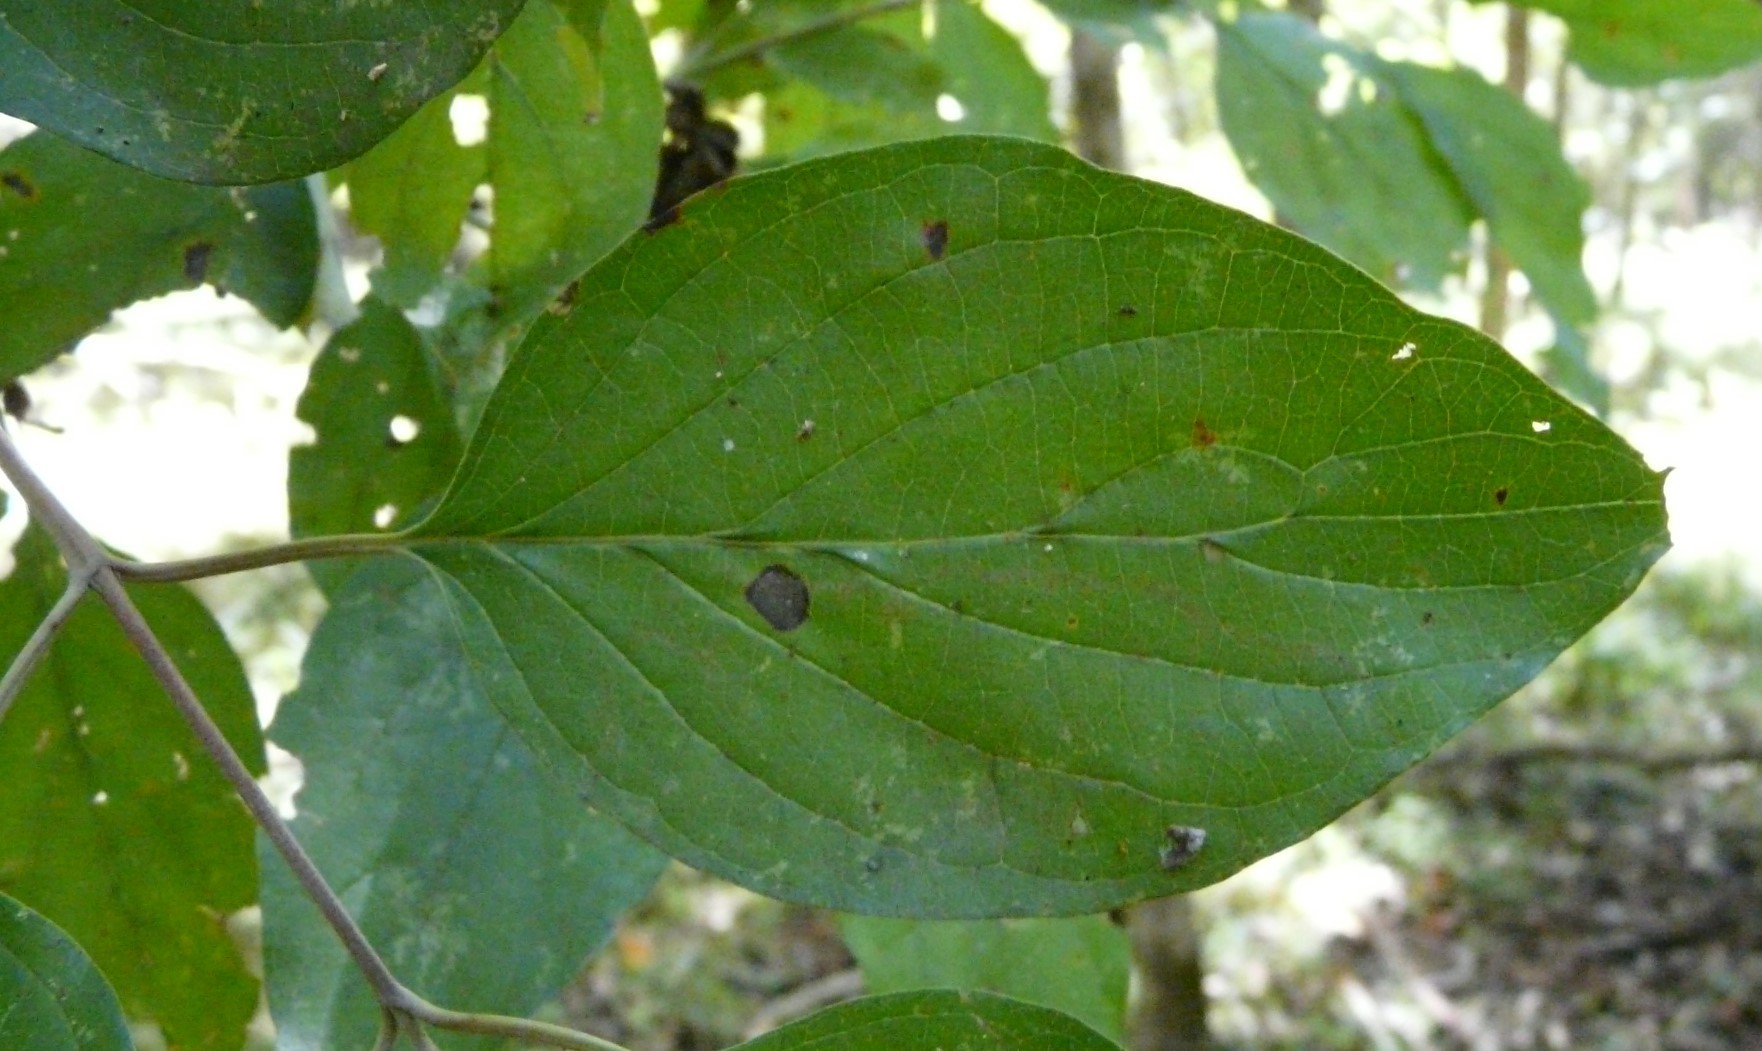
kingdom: Plantae
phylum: Tracheophyta
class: Magnoliopsida
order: Cornales
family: Cornaceae
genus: Cornus
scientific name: Cornus florida
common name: Flowering dogwood
